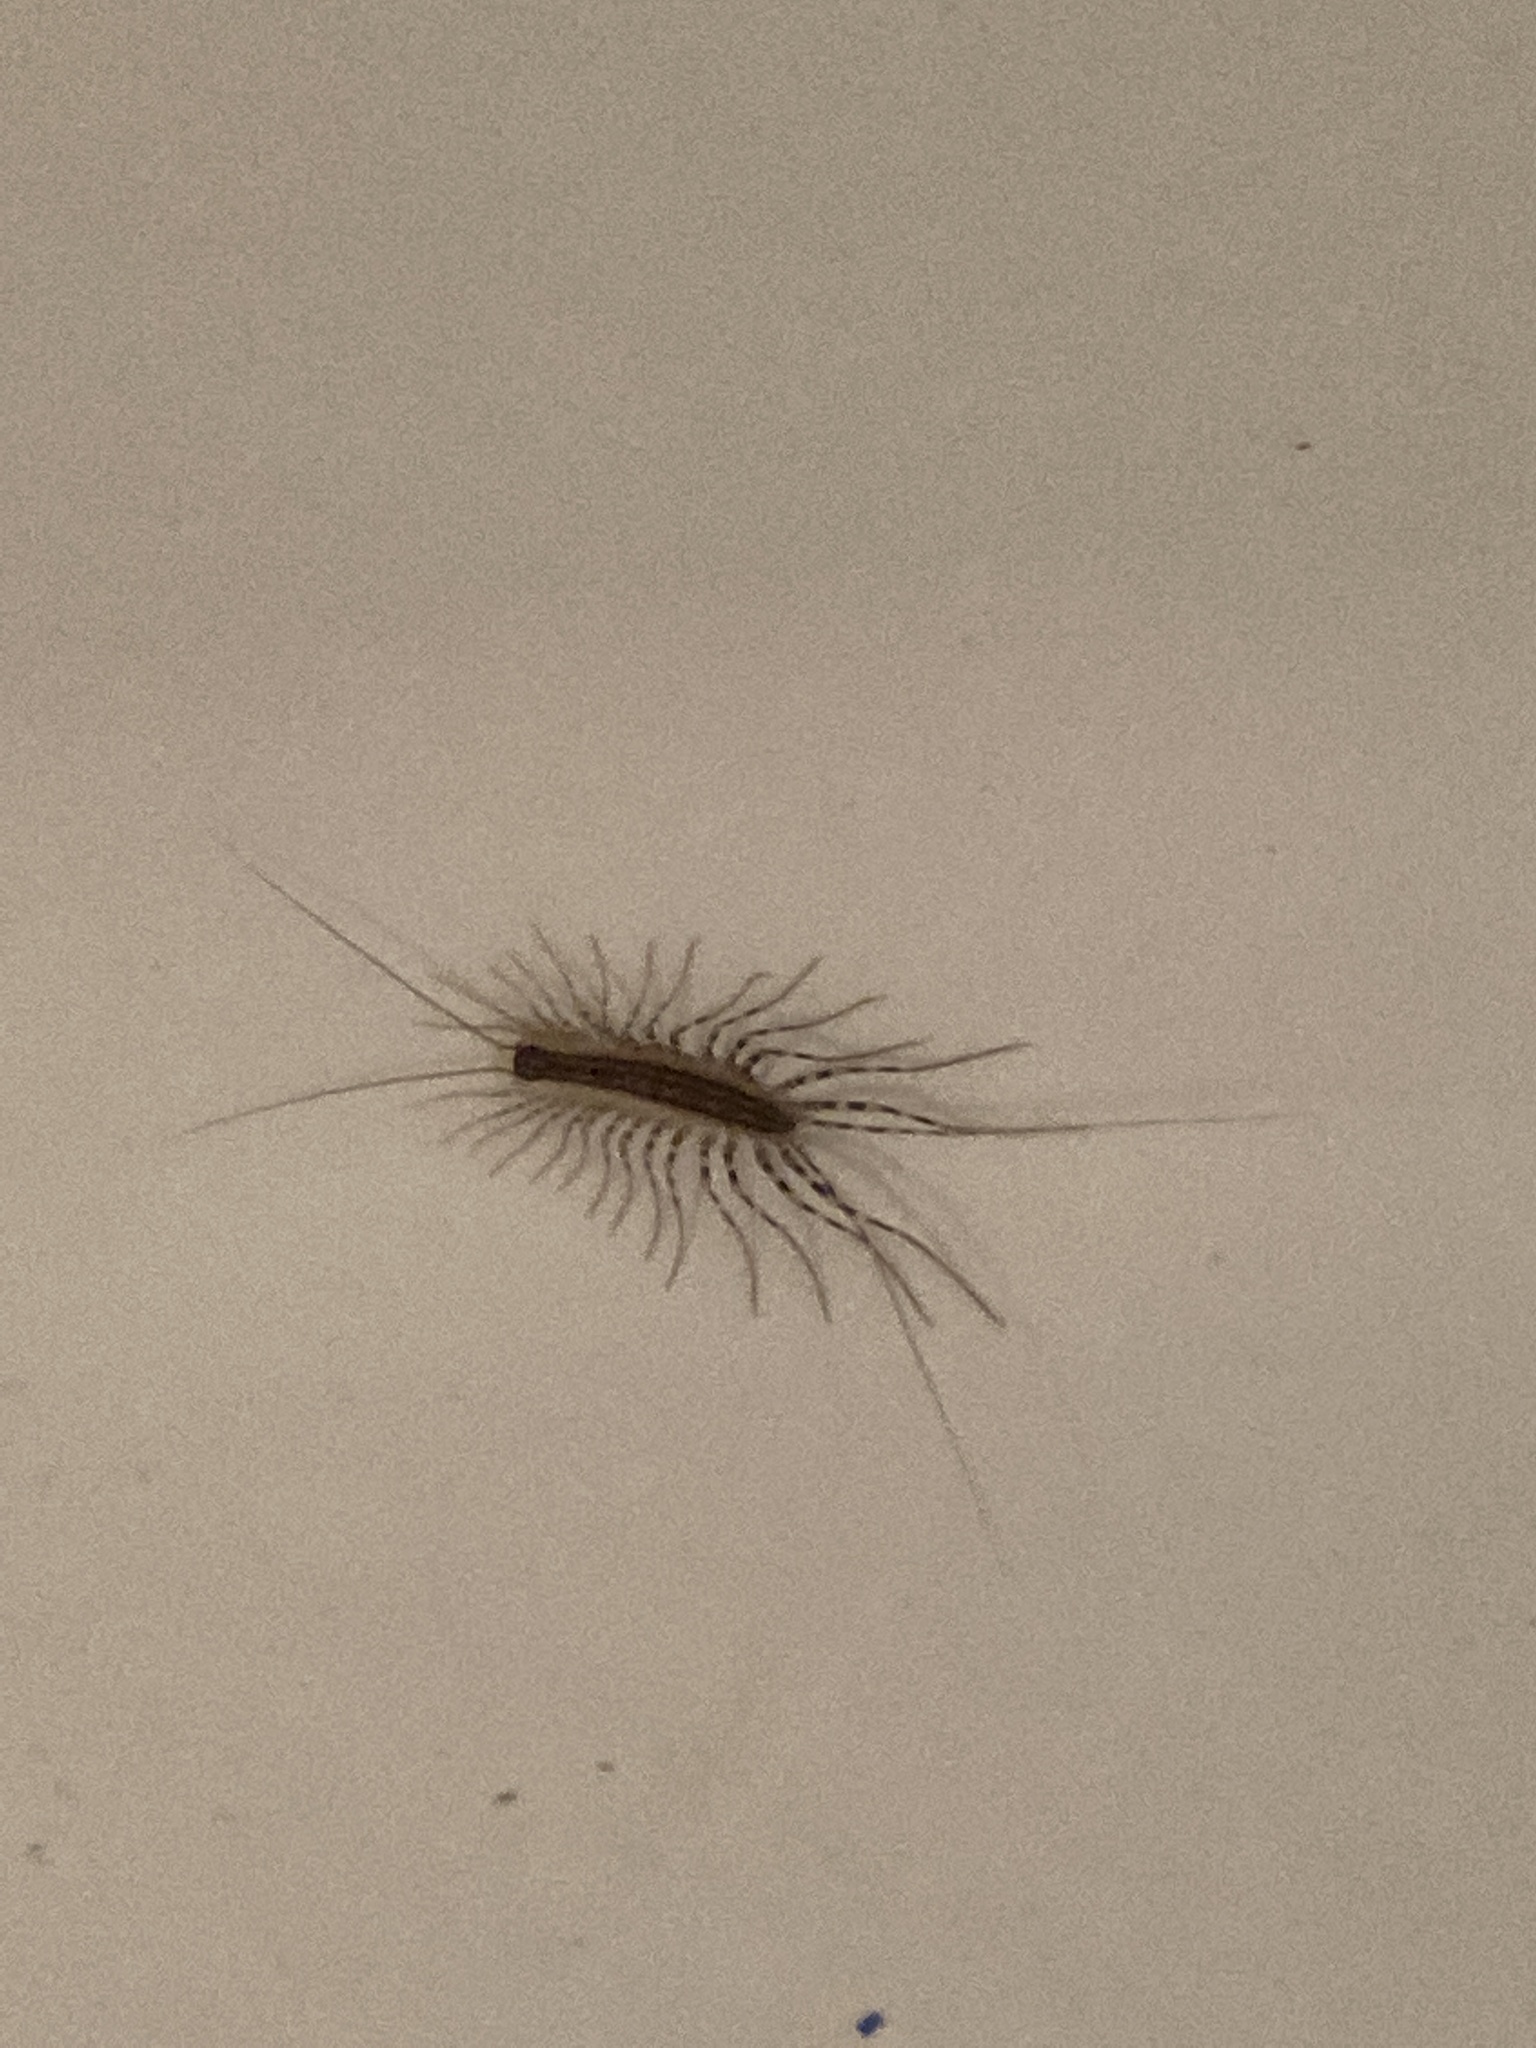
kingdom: Animalia
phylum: Arthropoda
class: Chilopoda
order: Scutigeromorpha
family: Scutigeridae
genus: Scutigera
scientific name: Scutigera coleoptrata
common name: House centipede
